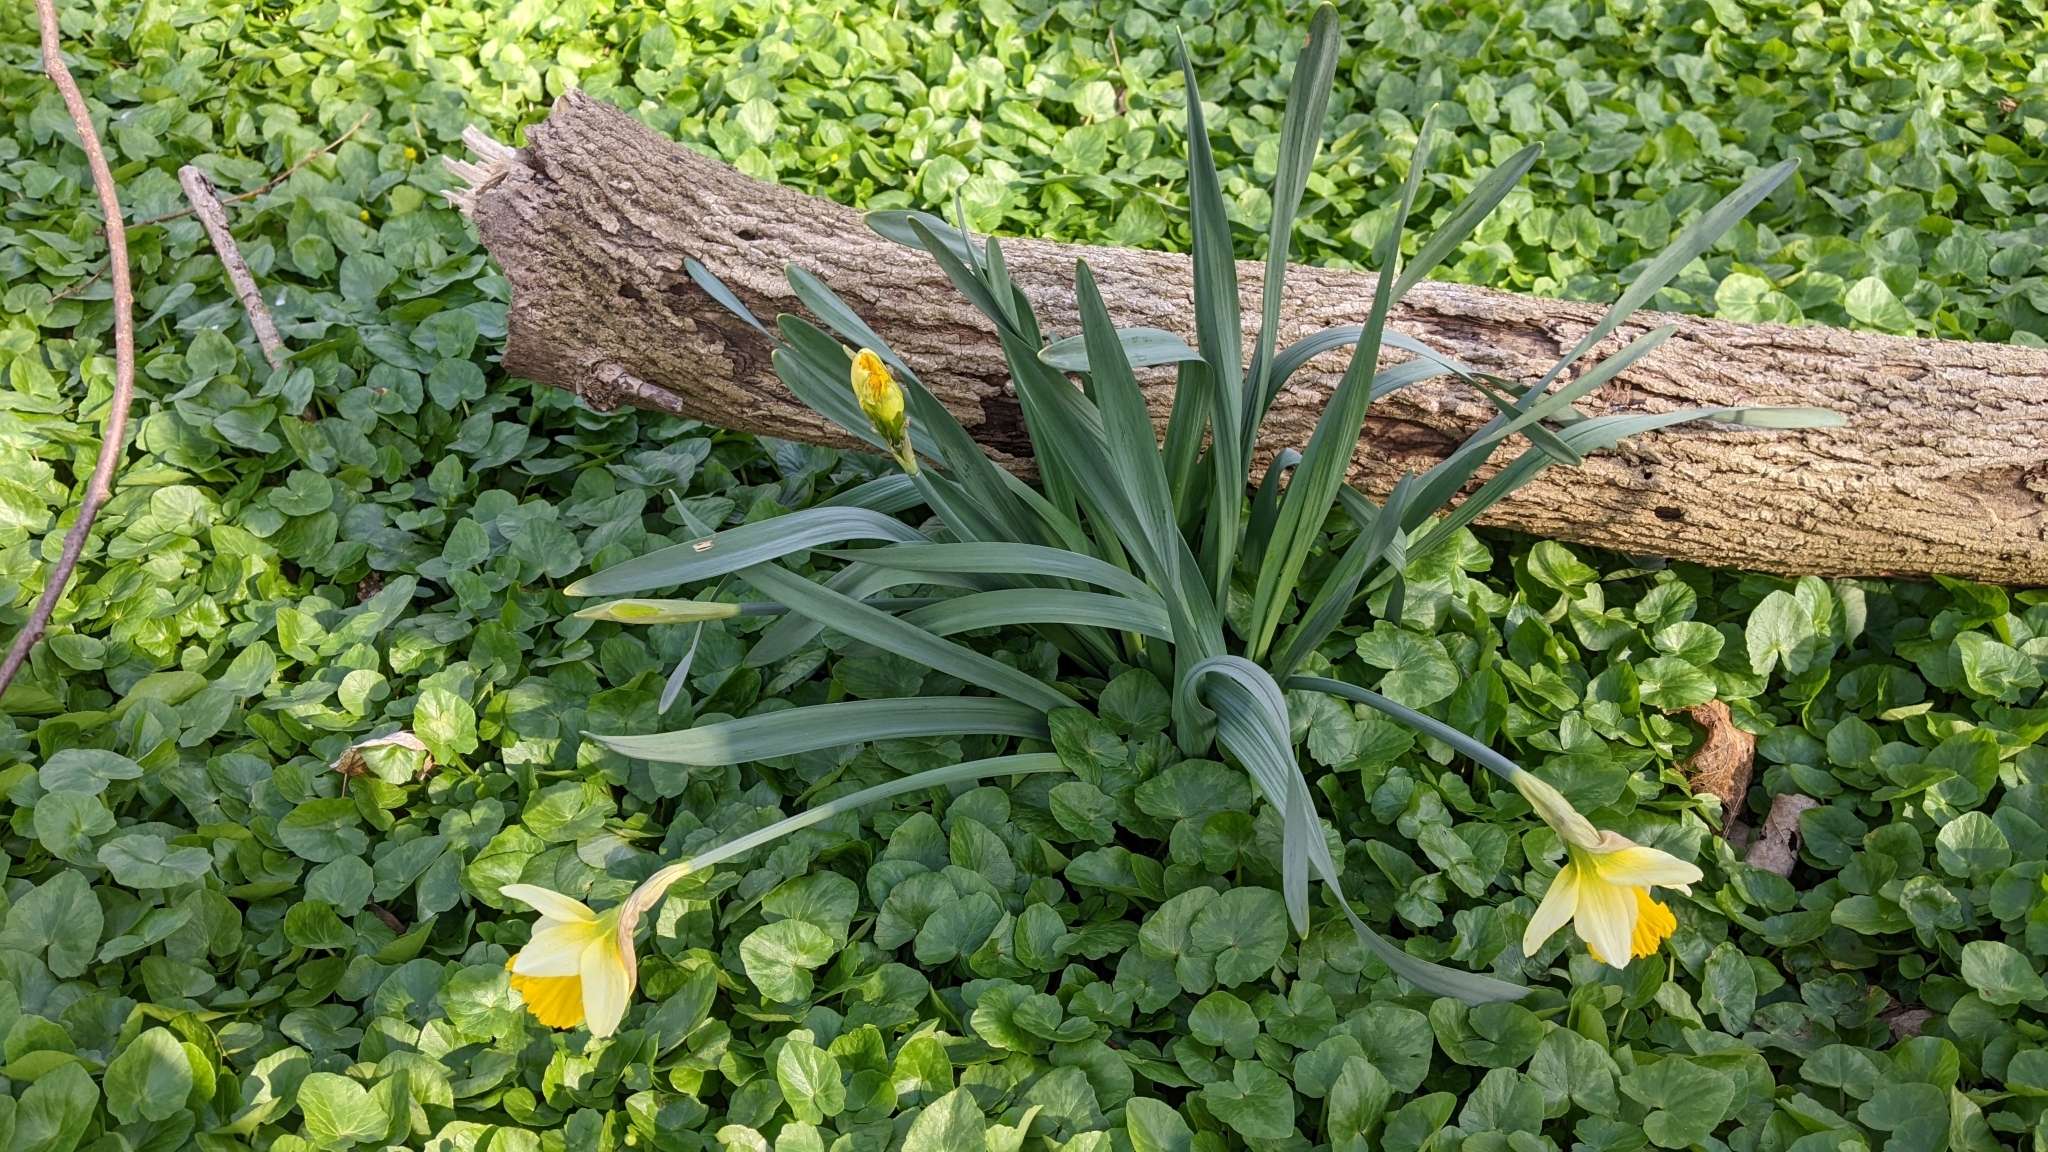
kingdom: Plantae
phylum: Tracheophyta
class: Liliopsida
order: Asparagales
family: Amaryllidaceae
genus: Narcissus
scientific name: Narcissus pseudonarcissus
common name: Daffodil
